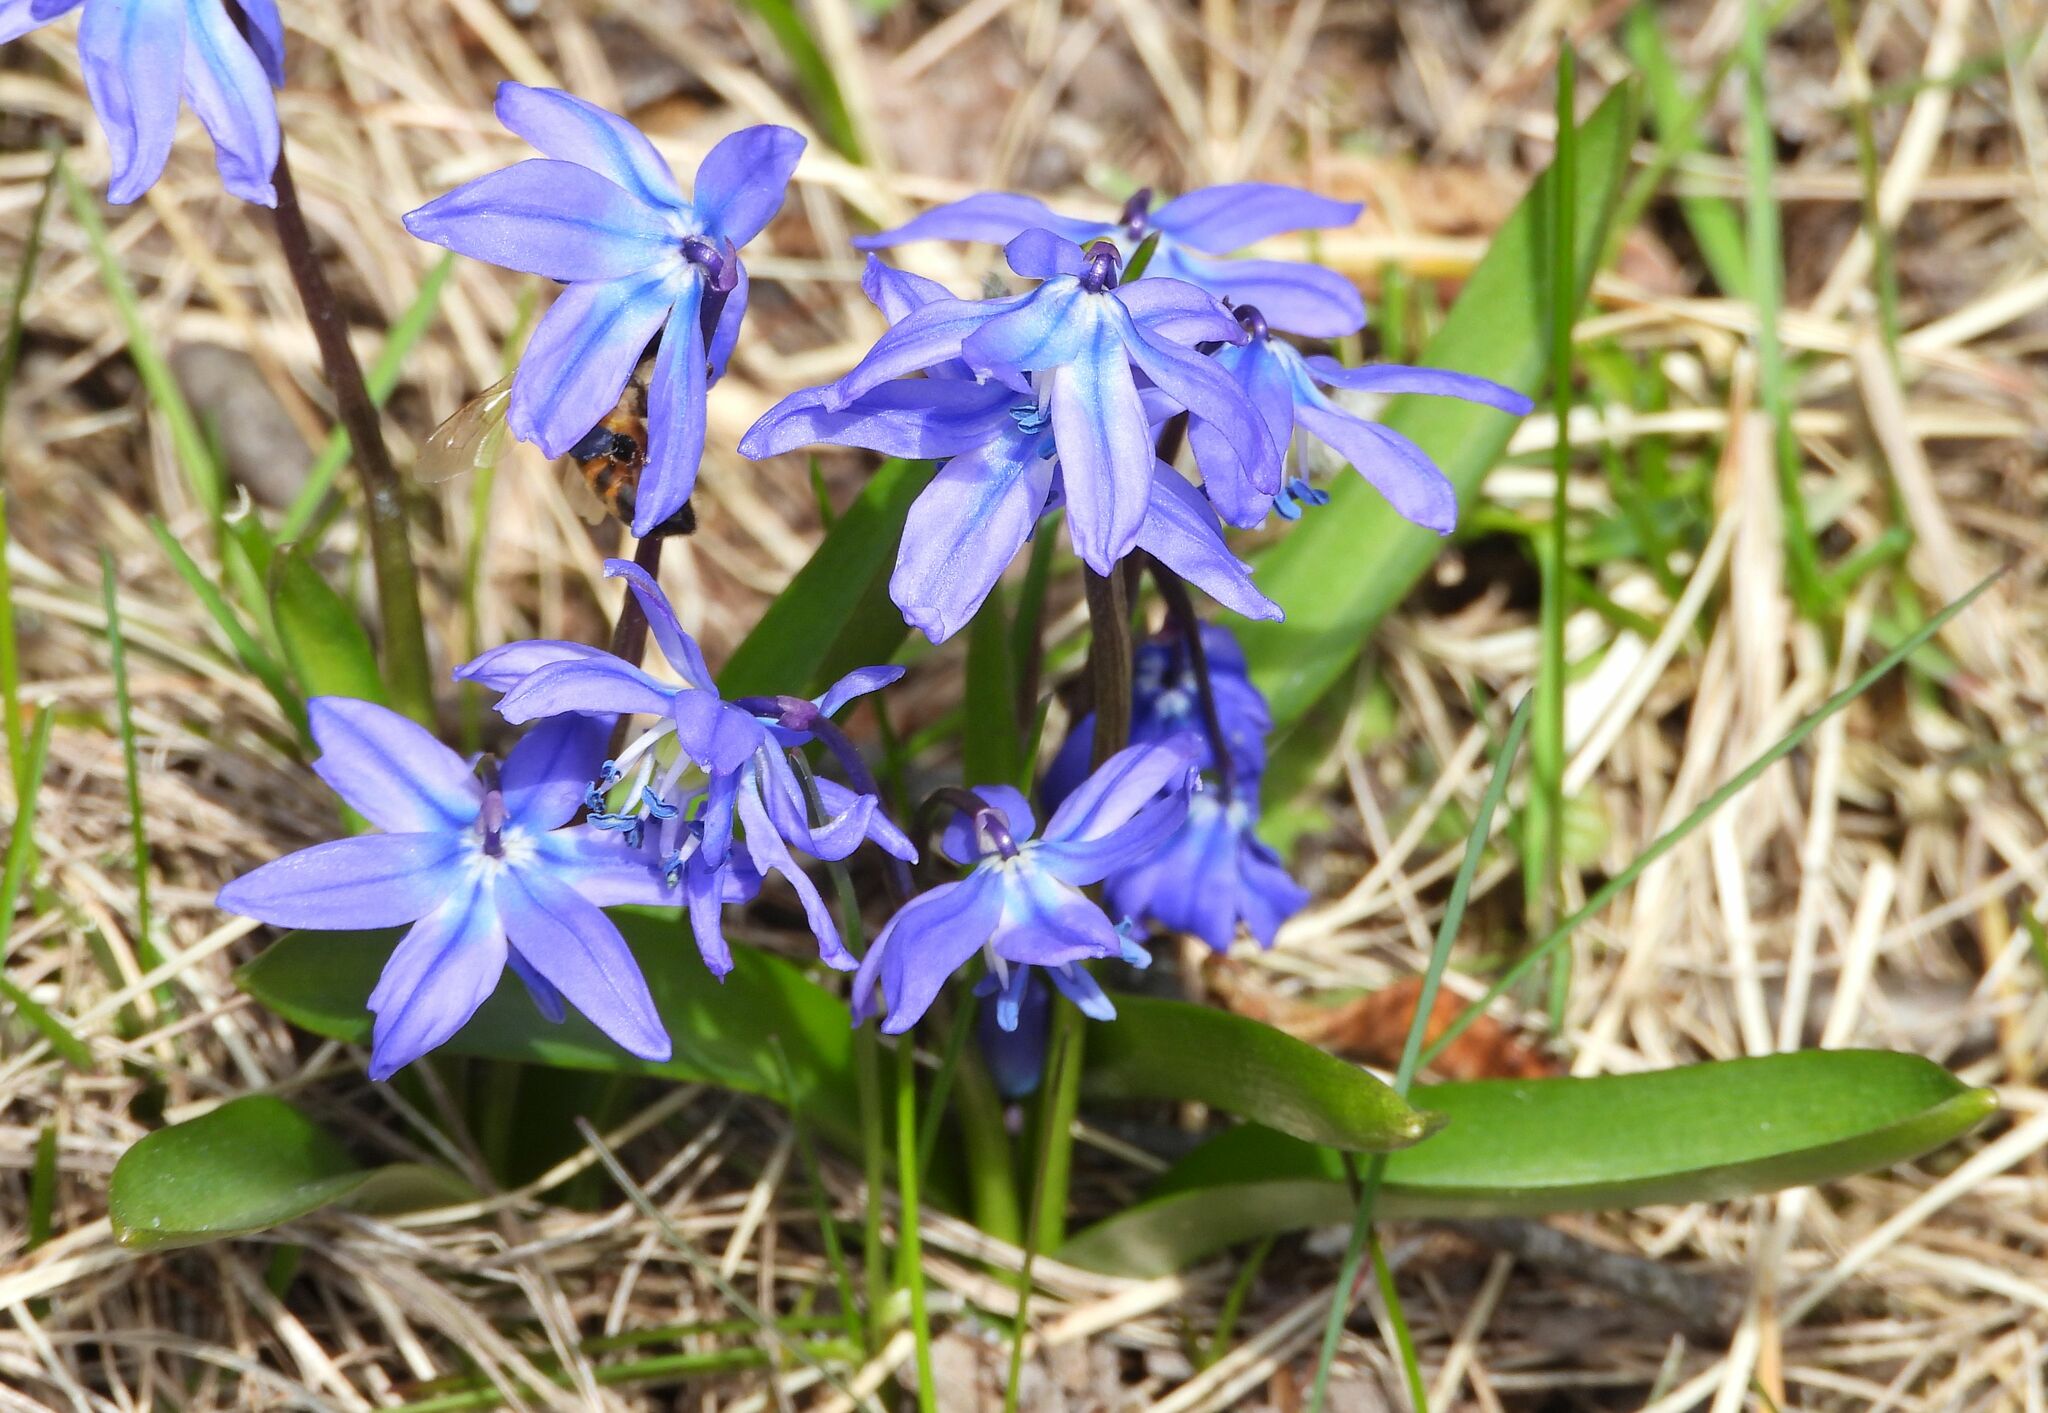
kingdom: Plantae
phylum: Tracheophyta
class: Liliopsida
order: Asparagales
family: Asparagaceae
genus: Scilla
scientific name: Scilla siberica
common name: Siberian squill
